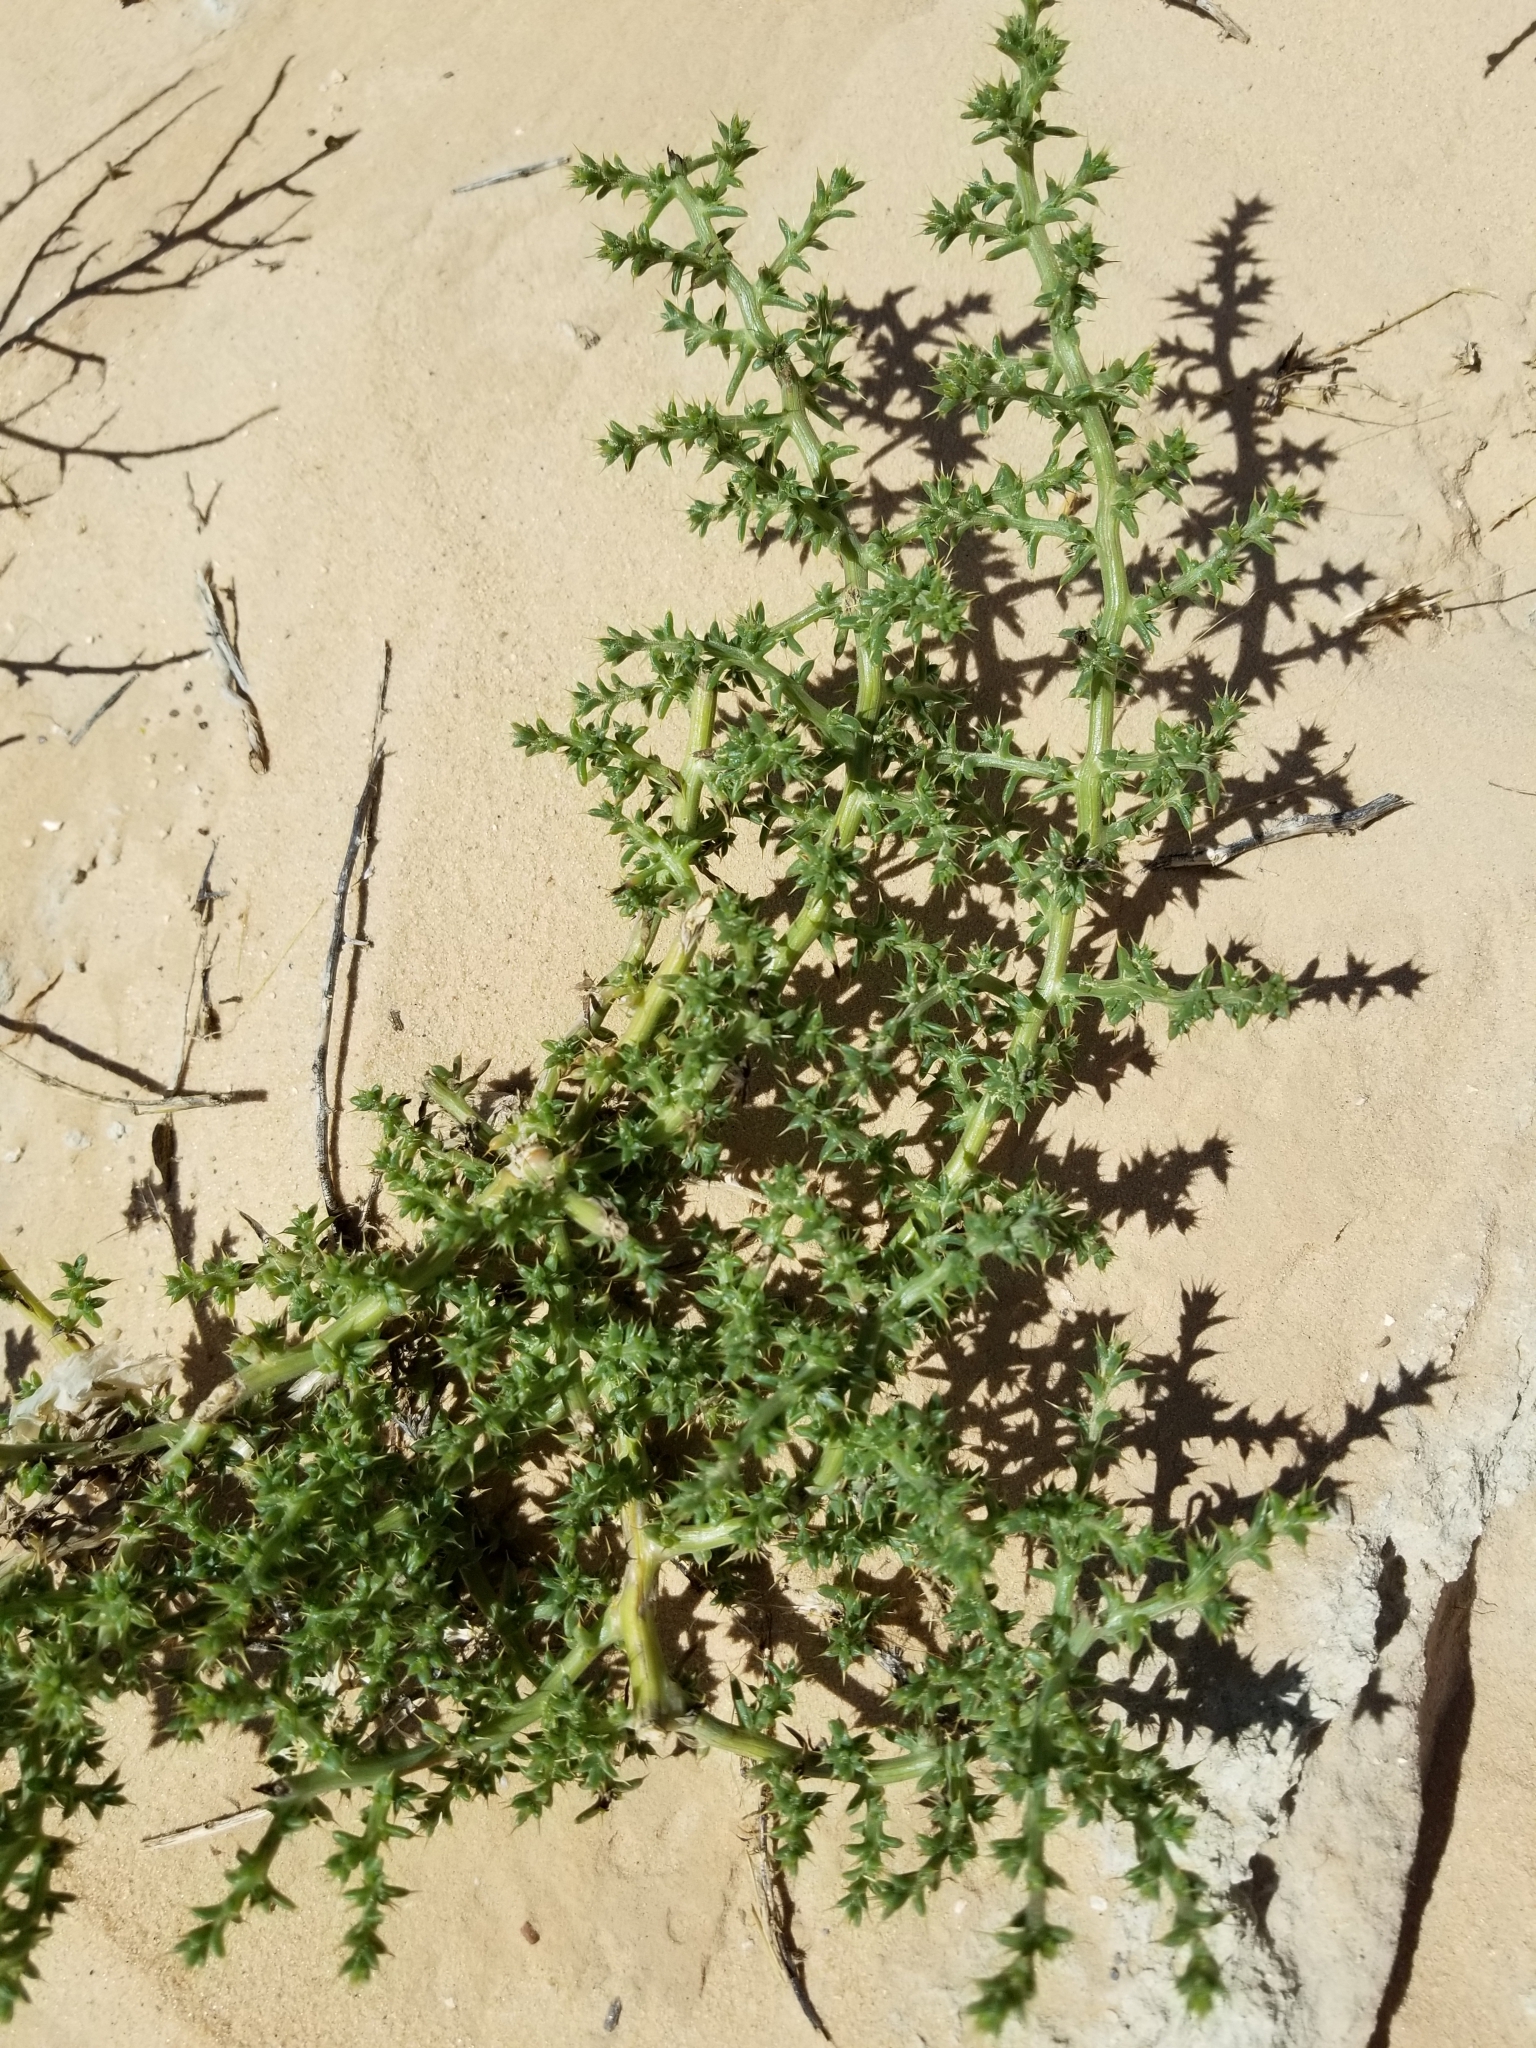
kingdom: Plantae
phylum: Tracheophyta
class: Magnoliopsida
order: Caryophyllales
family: Amaranthaceae
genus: Salsola
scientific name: Salsola tragus
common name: Prickly russian thistle
